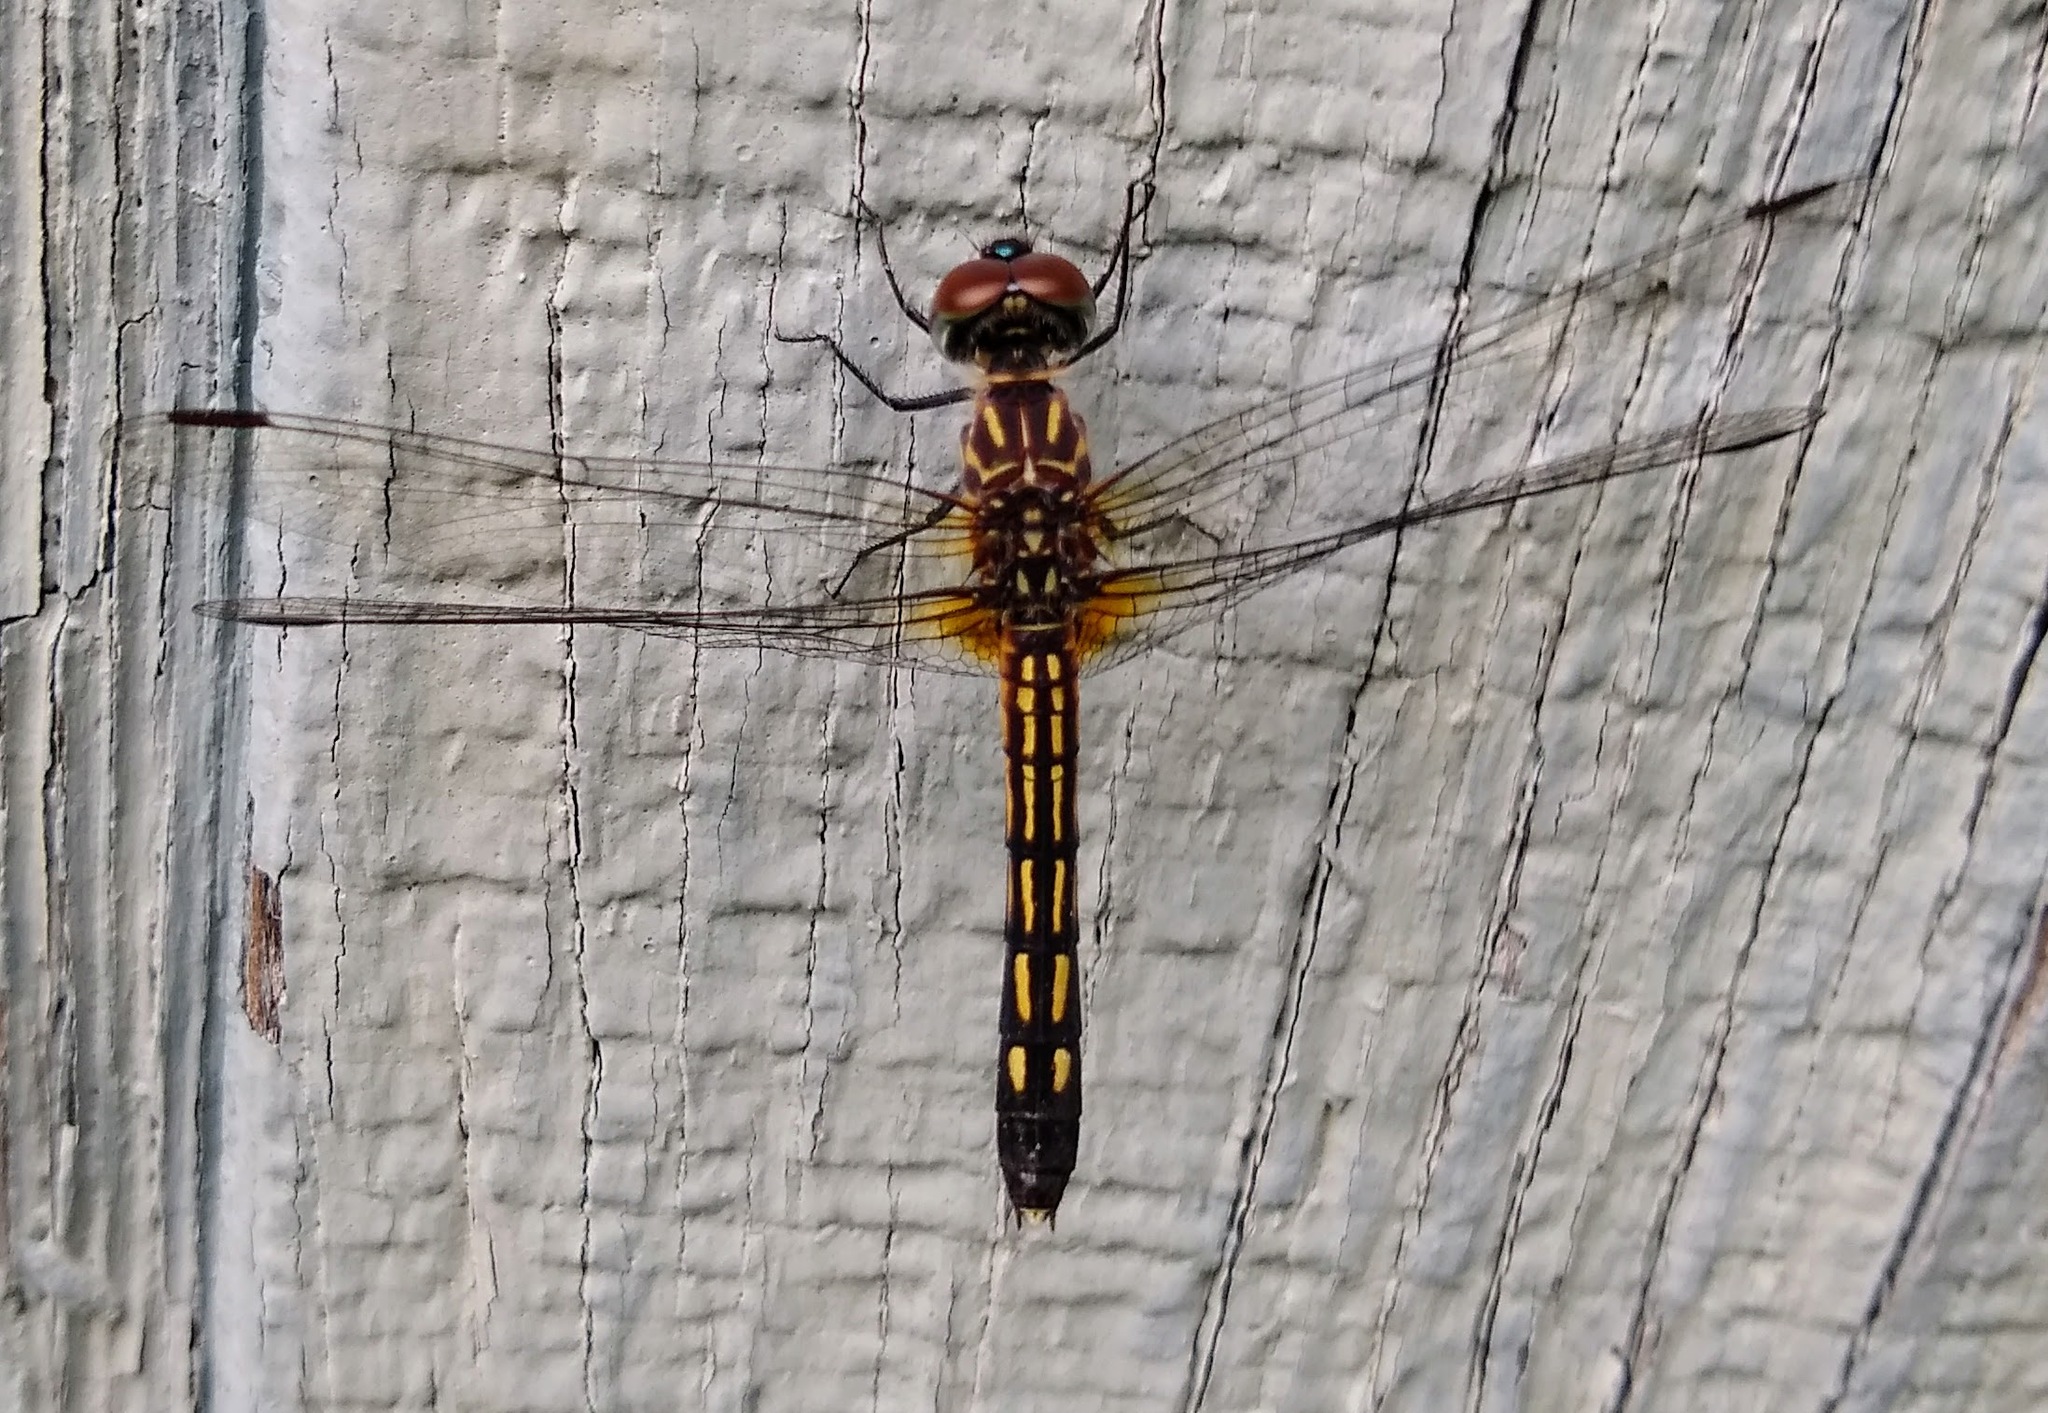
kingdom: Animalia
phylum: Arthropoda
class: Insecta
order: Odonata
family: Libellulidae
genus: Pachydiplax
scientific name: Pachydiplax longipennis
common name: Blue dasher
